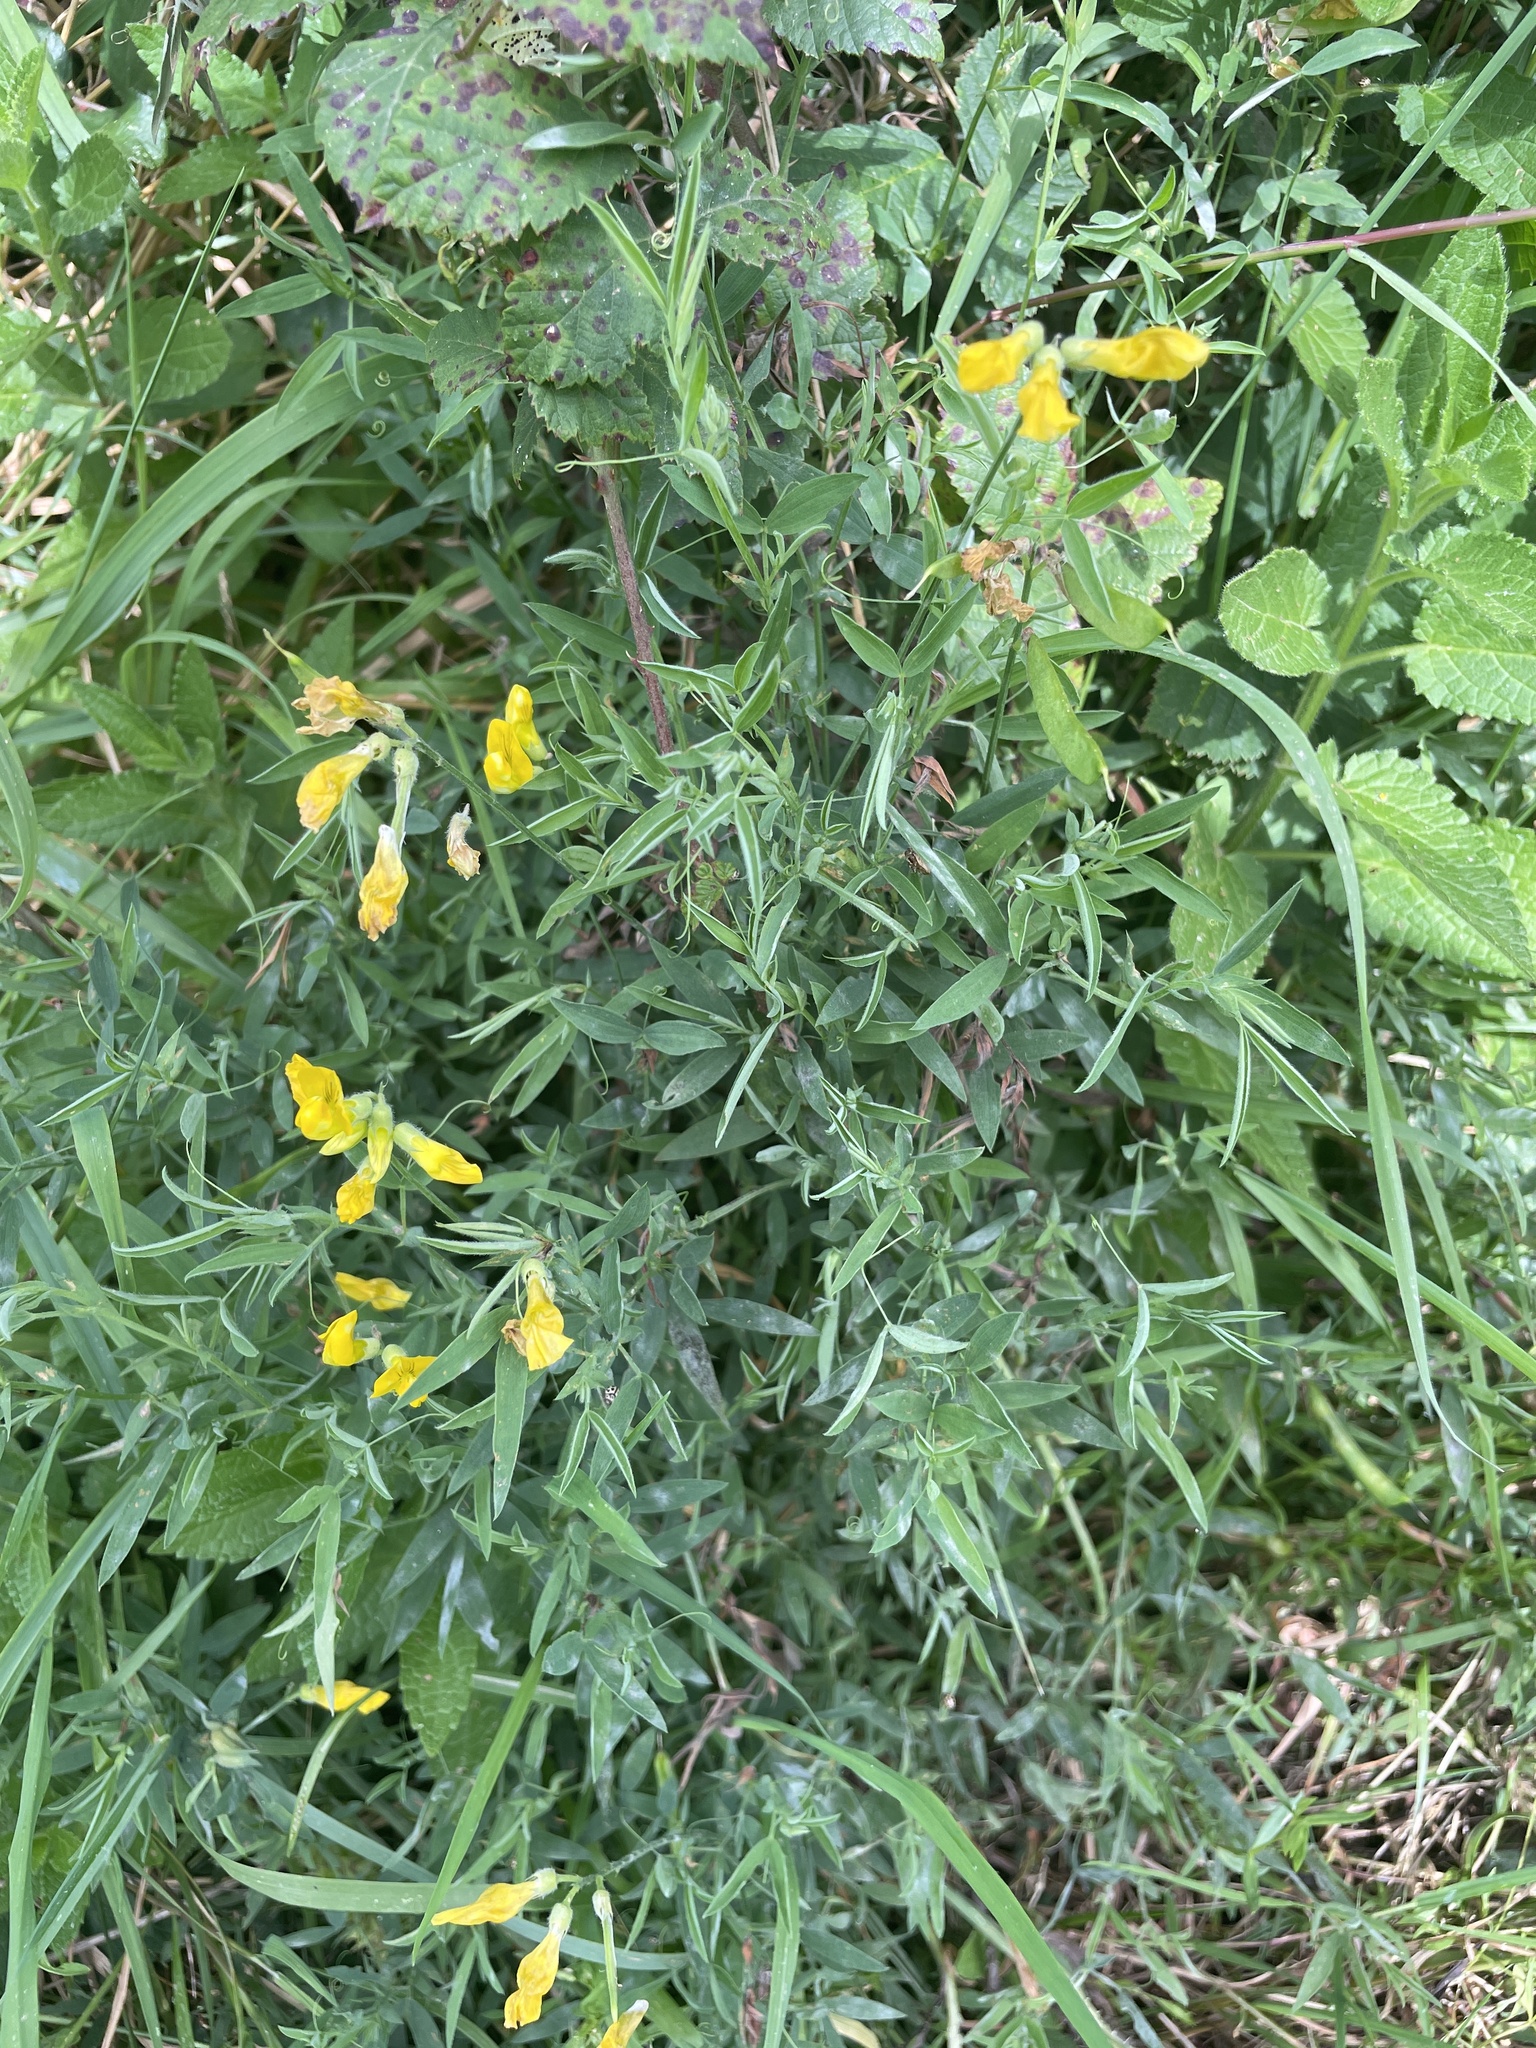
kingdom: Plantae
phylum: Tracheophyta
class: Magnoliopsida
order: Fabales
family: Fabaceae
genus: Lathyrus
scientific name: Lathyrus pratensis
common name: Meadow vetchling
